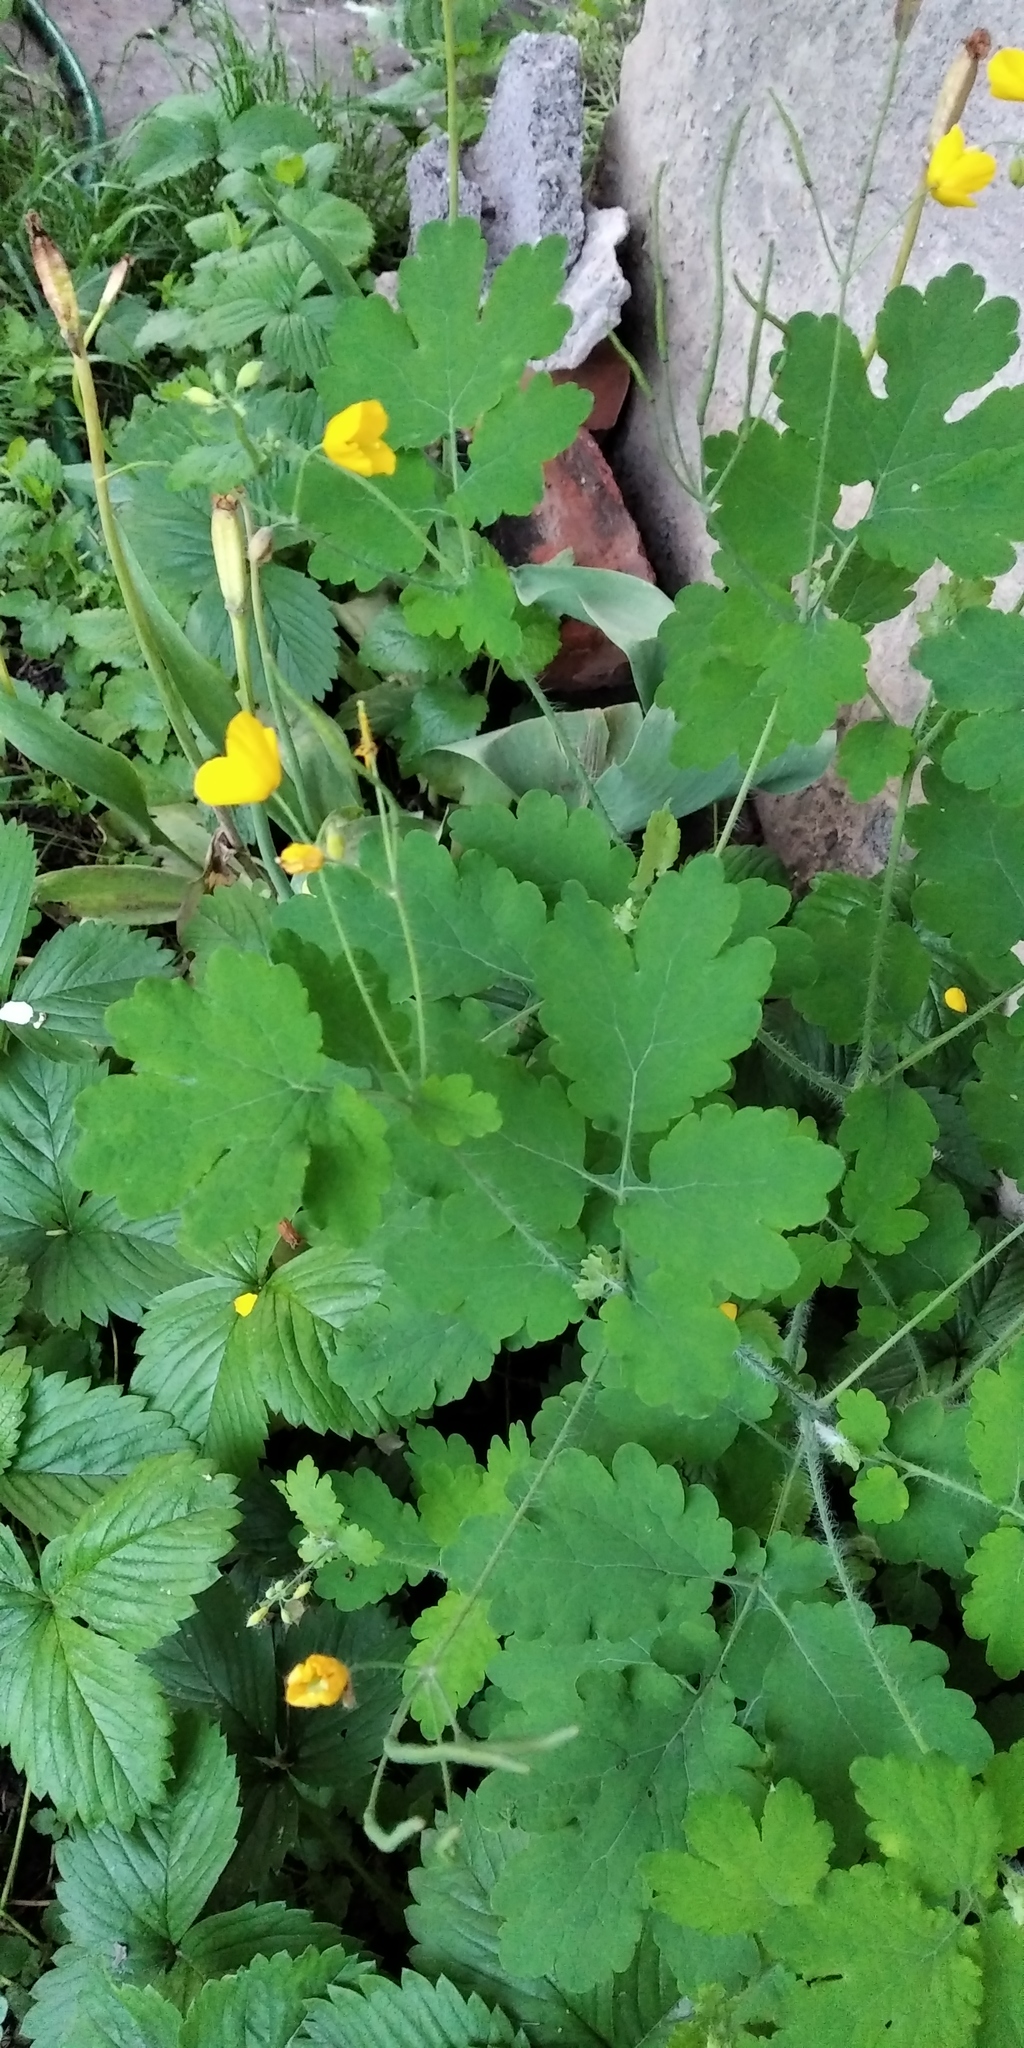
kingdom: Plantae
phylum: Tracheophyta
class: Magnoliopsida
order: Ranunculales
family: Papaveraceae
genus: Chelidonium
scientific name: Chelidonium majus
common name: Greater celandine
